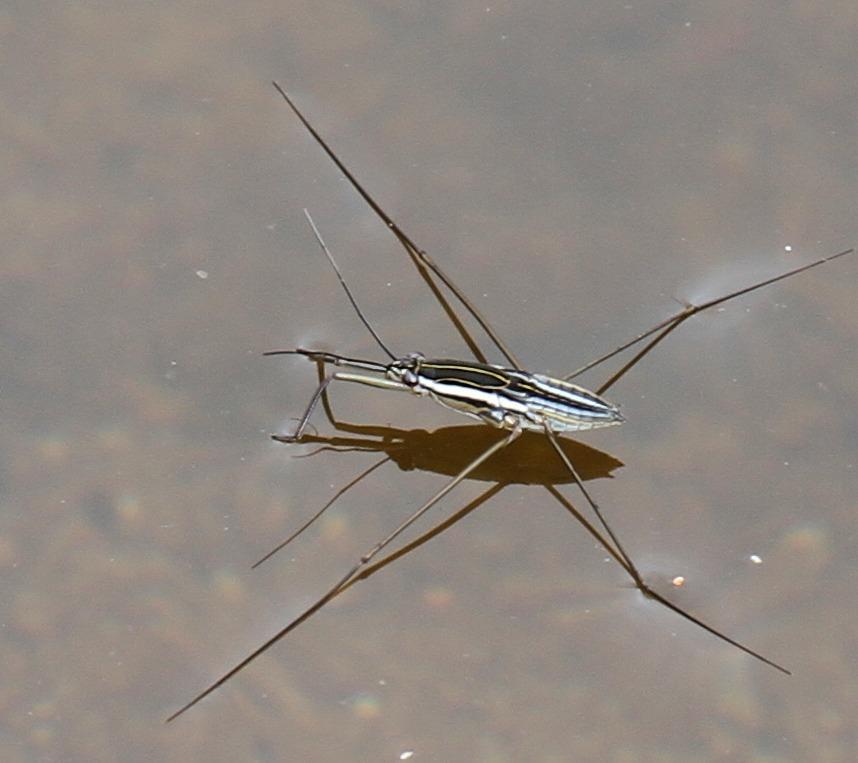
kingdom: Animalia
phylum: Arthropoda
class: Insecta
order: Hemiptera
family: Gerridae
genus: Limnogonoides
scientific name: Limnogonoides
